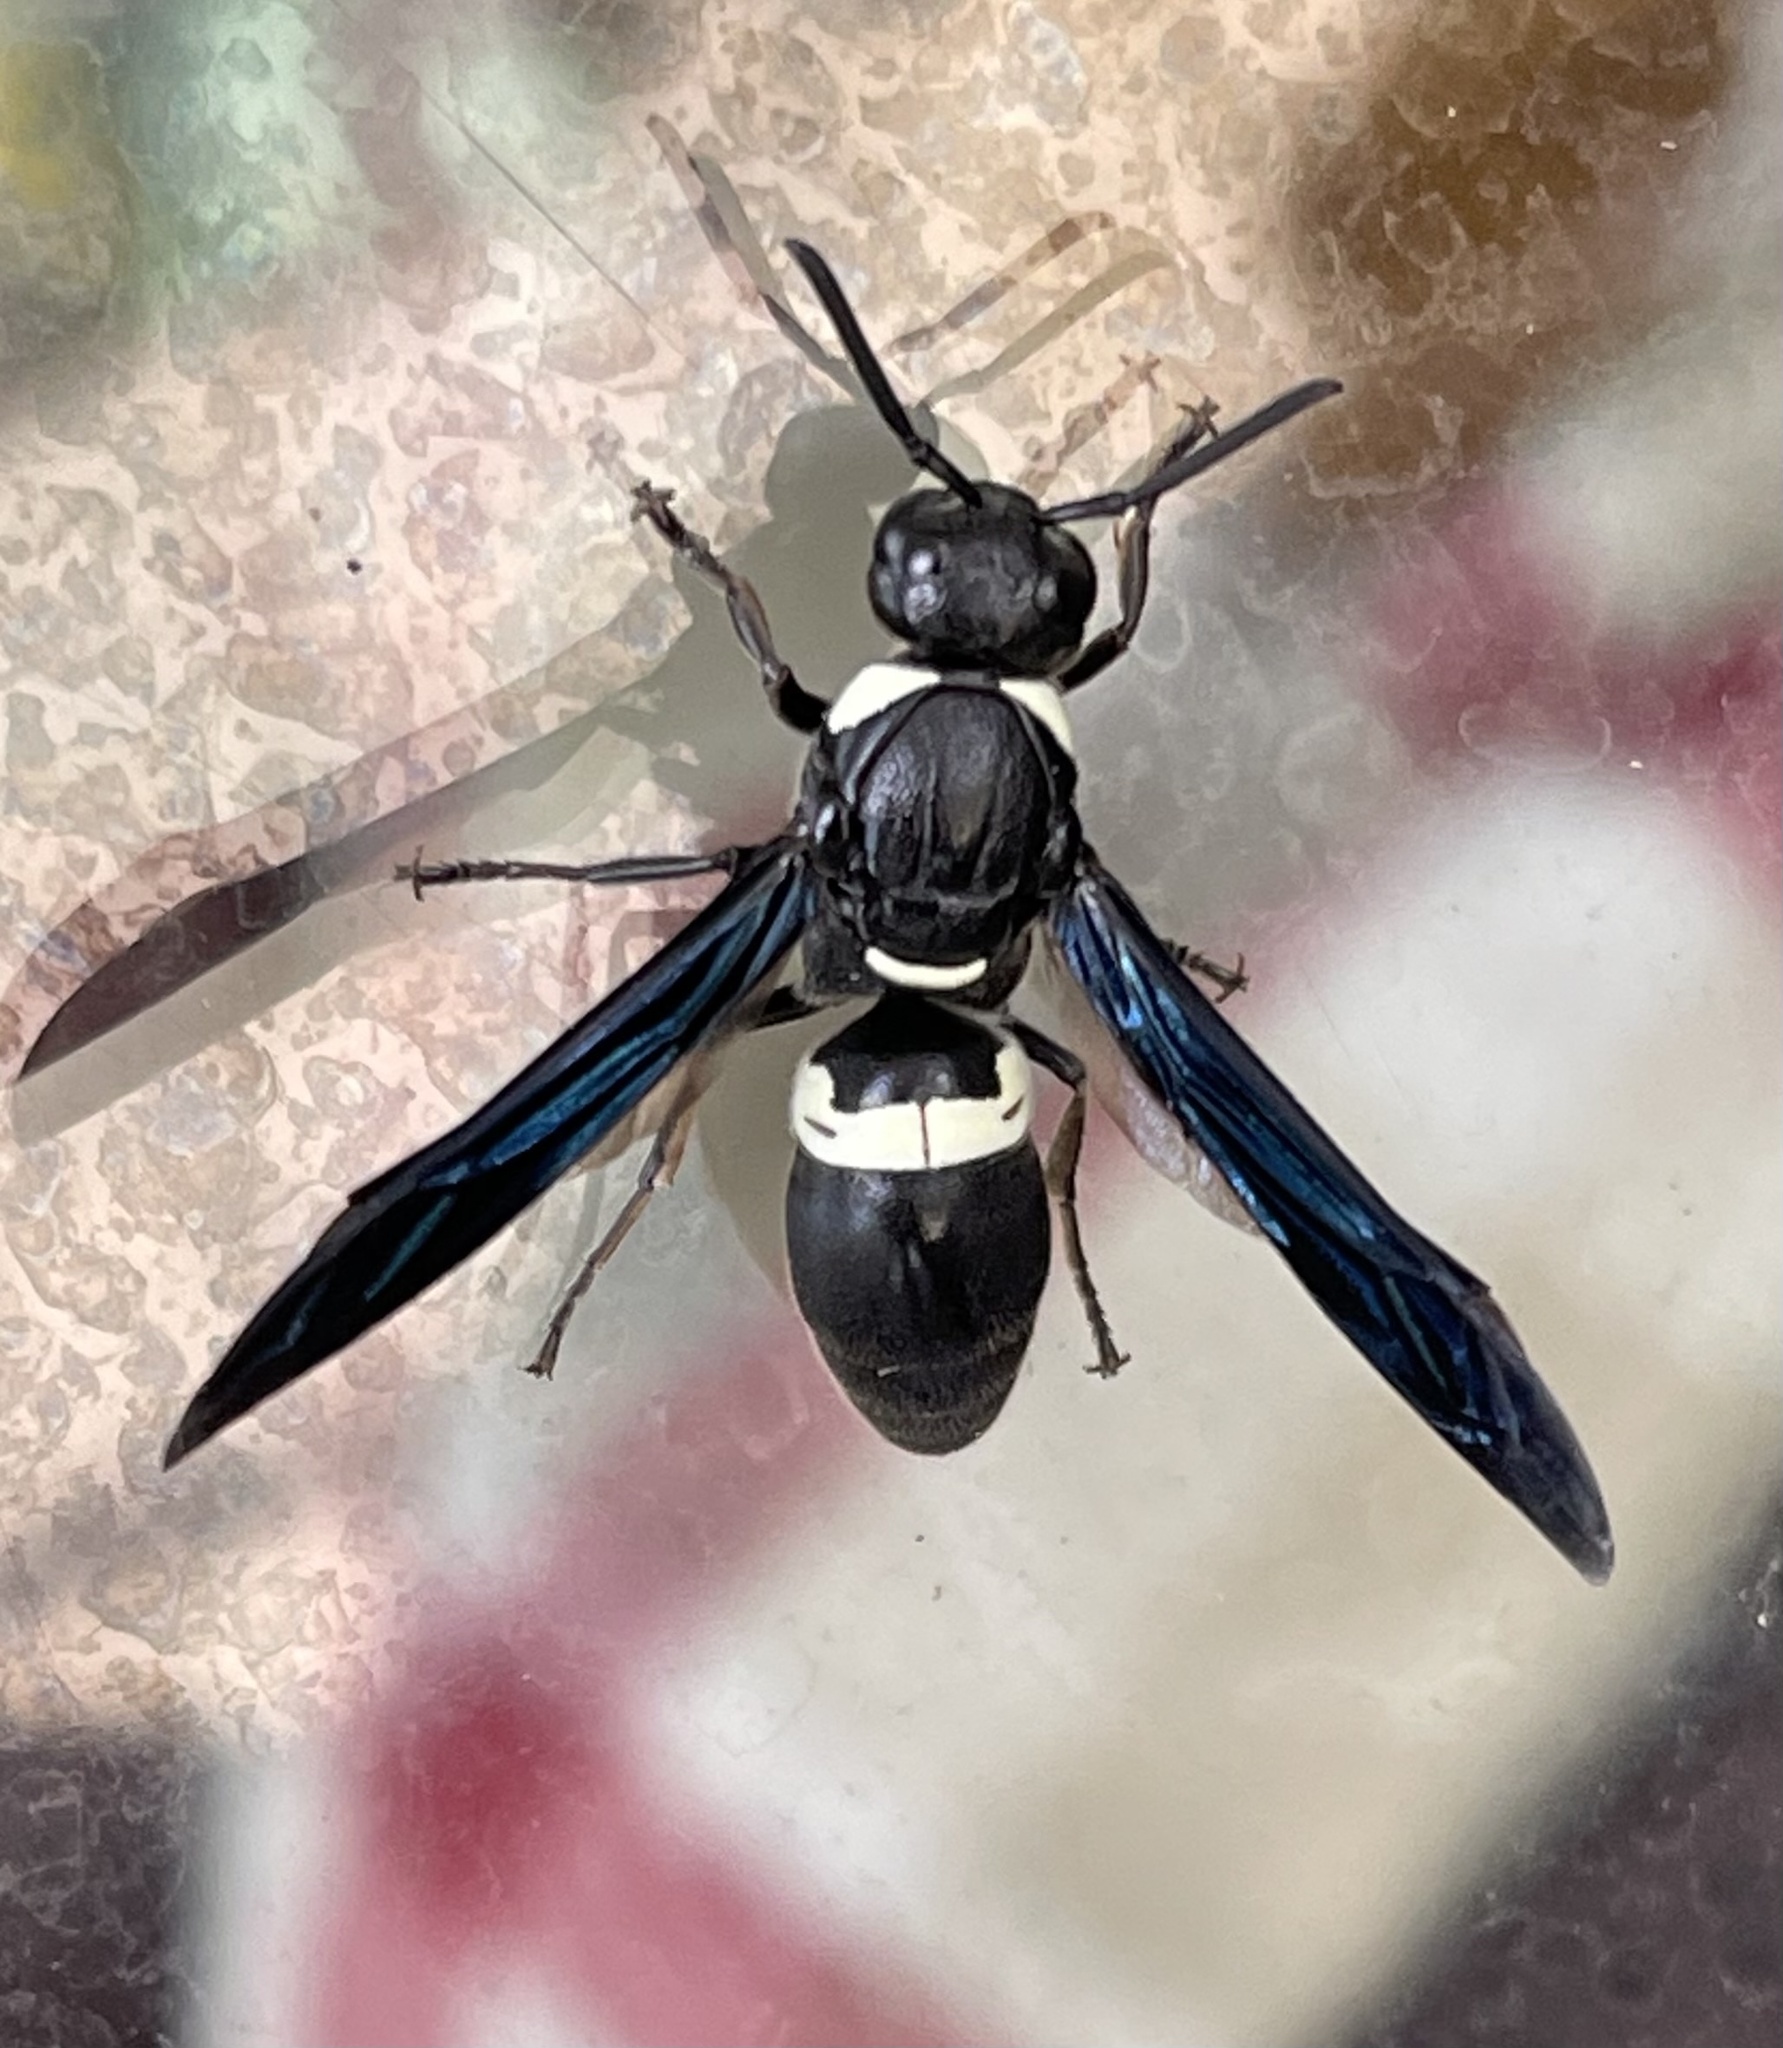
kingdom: Animalia
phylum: Arthropoda
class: Insecta
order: Hymenoptera
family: Eumenidae
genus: Monobia
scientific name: Monobia quadridens
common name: Four-toothed mason wasp
